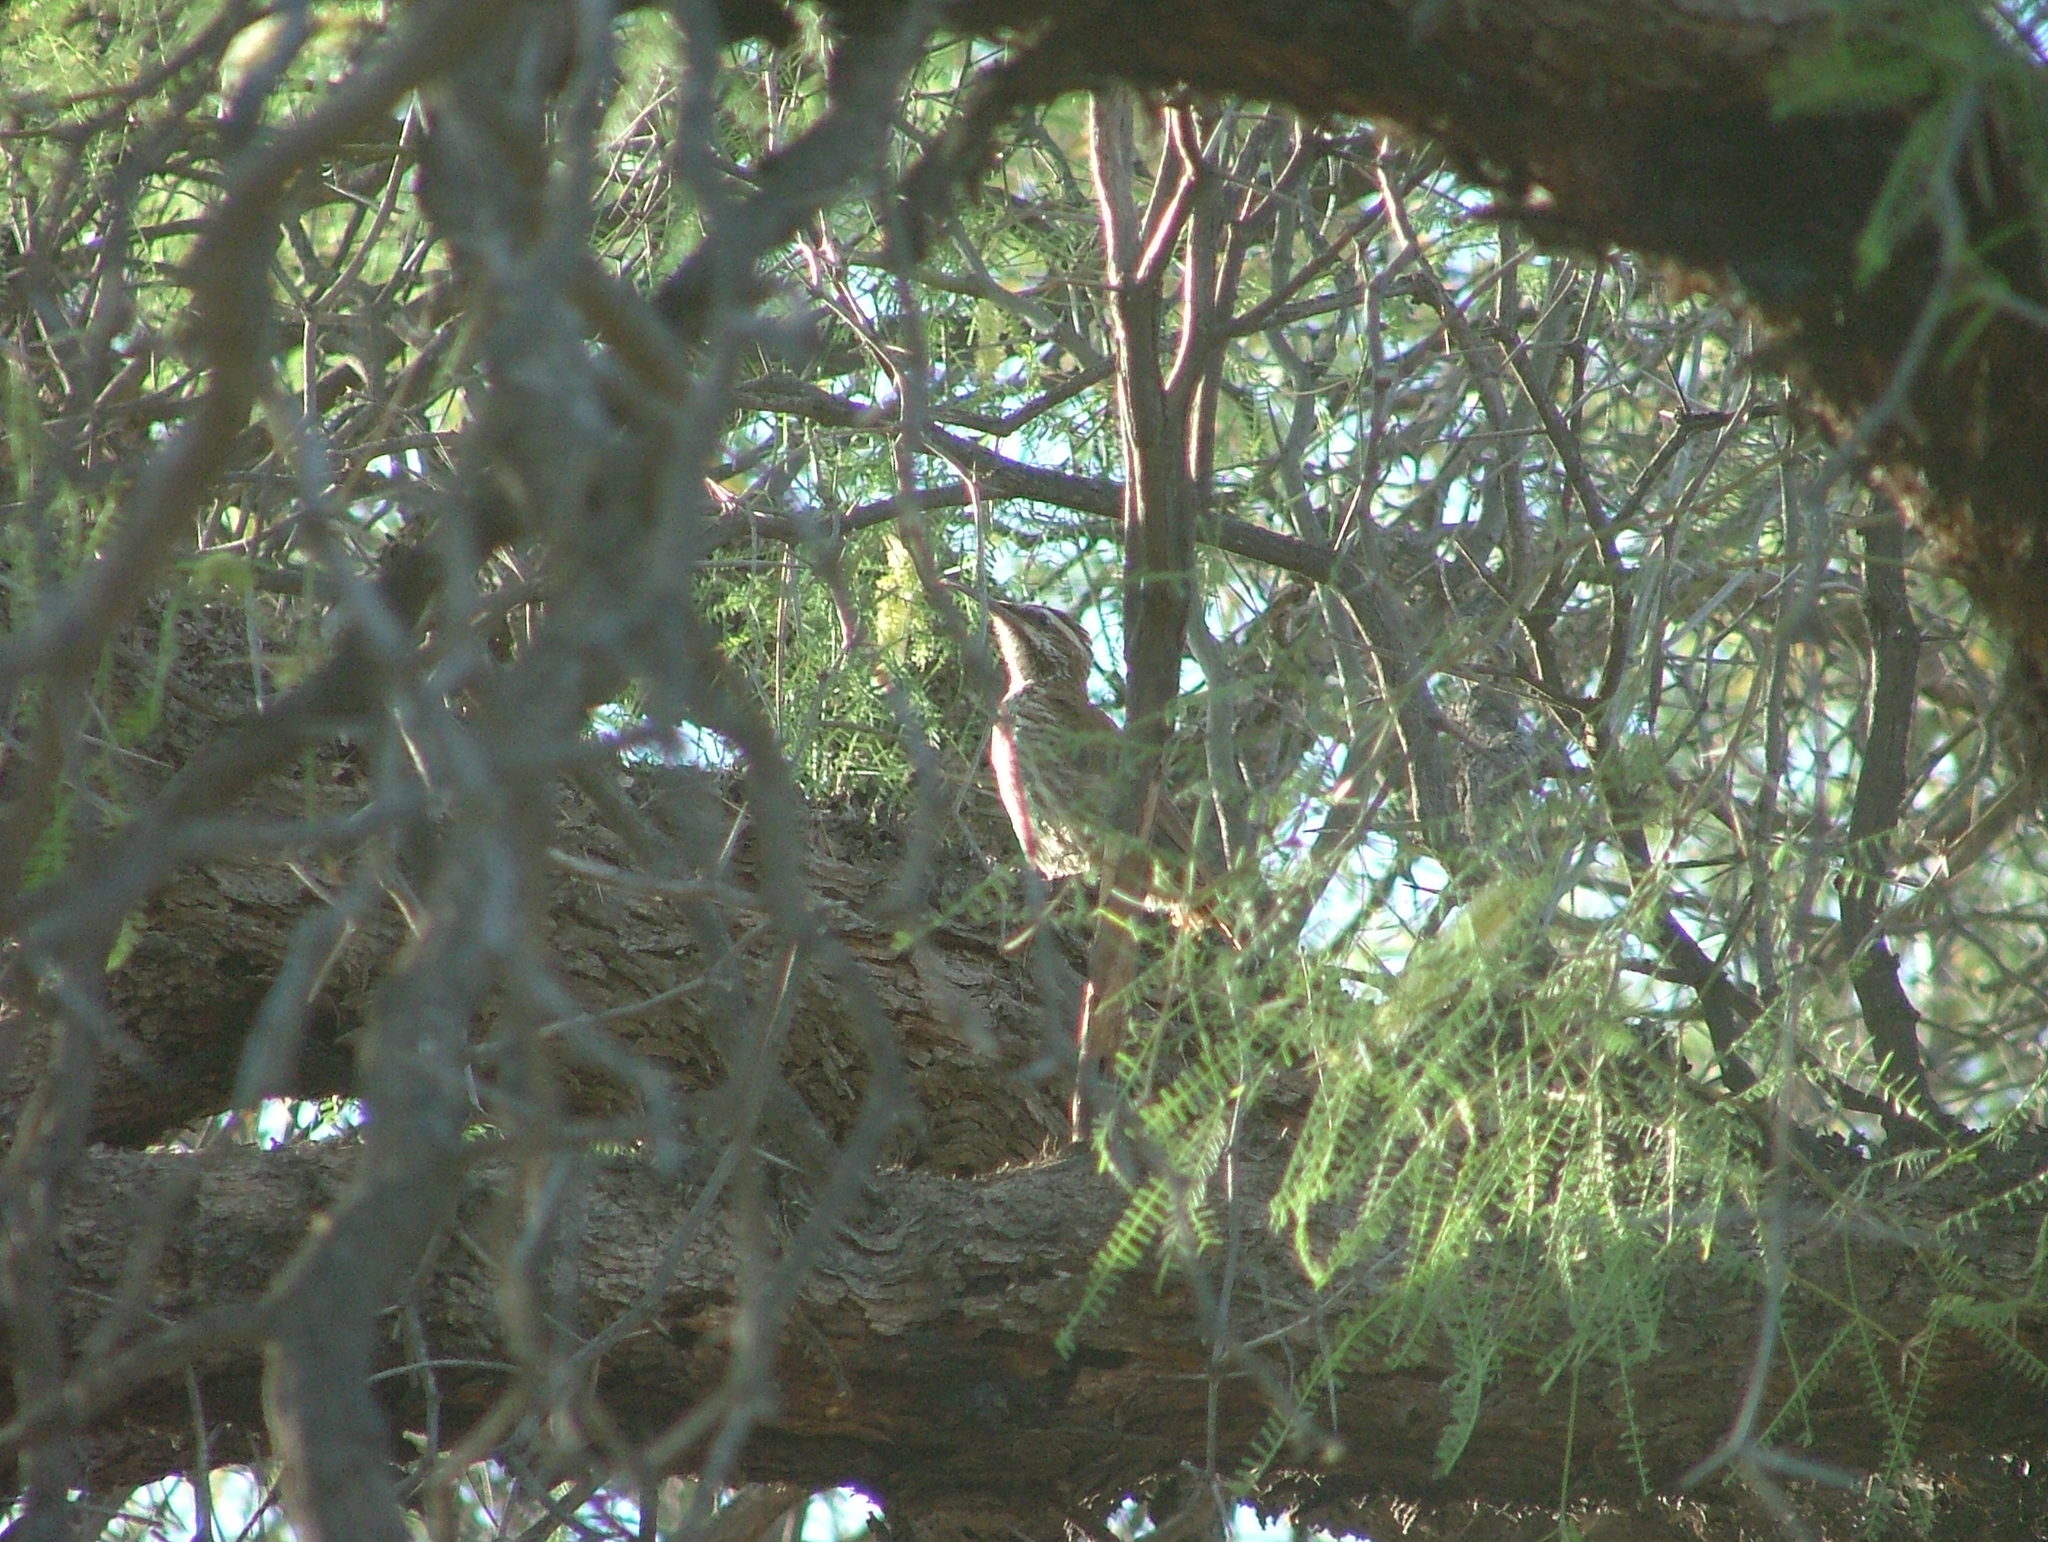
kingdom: Animalia
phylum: Chordata
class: Aves
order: Passeriformes
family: Furnariidae
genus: Drymornis
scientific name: Drymornis bridgesii
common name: Scimitar-billed woodcreeper
